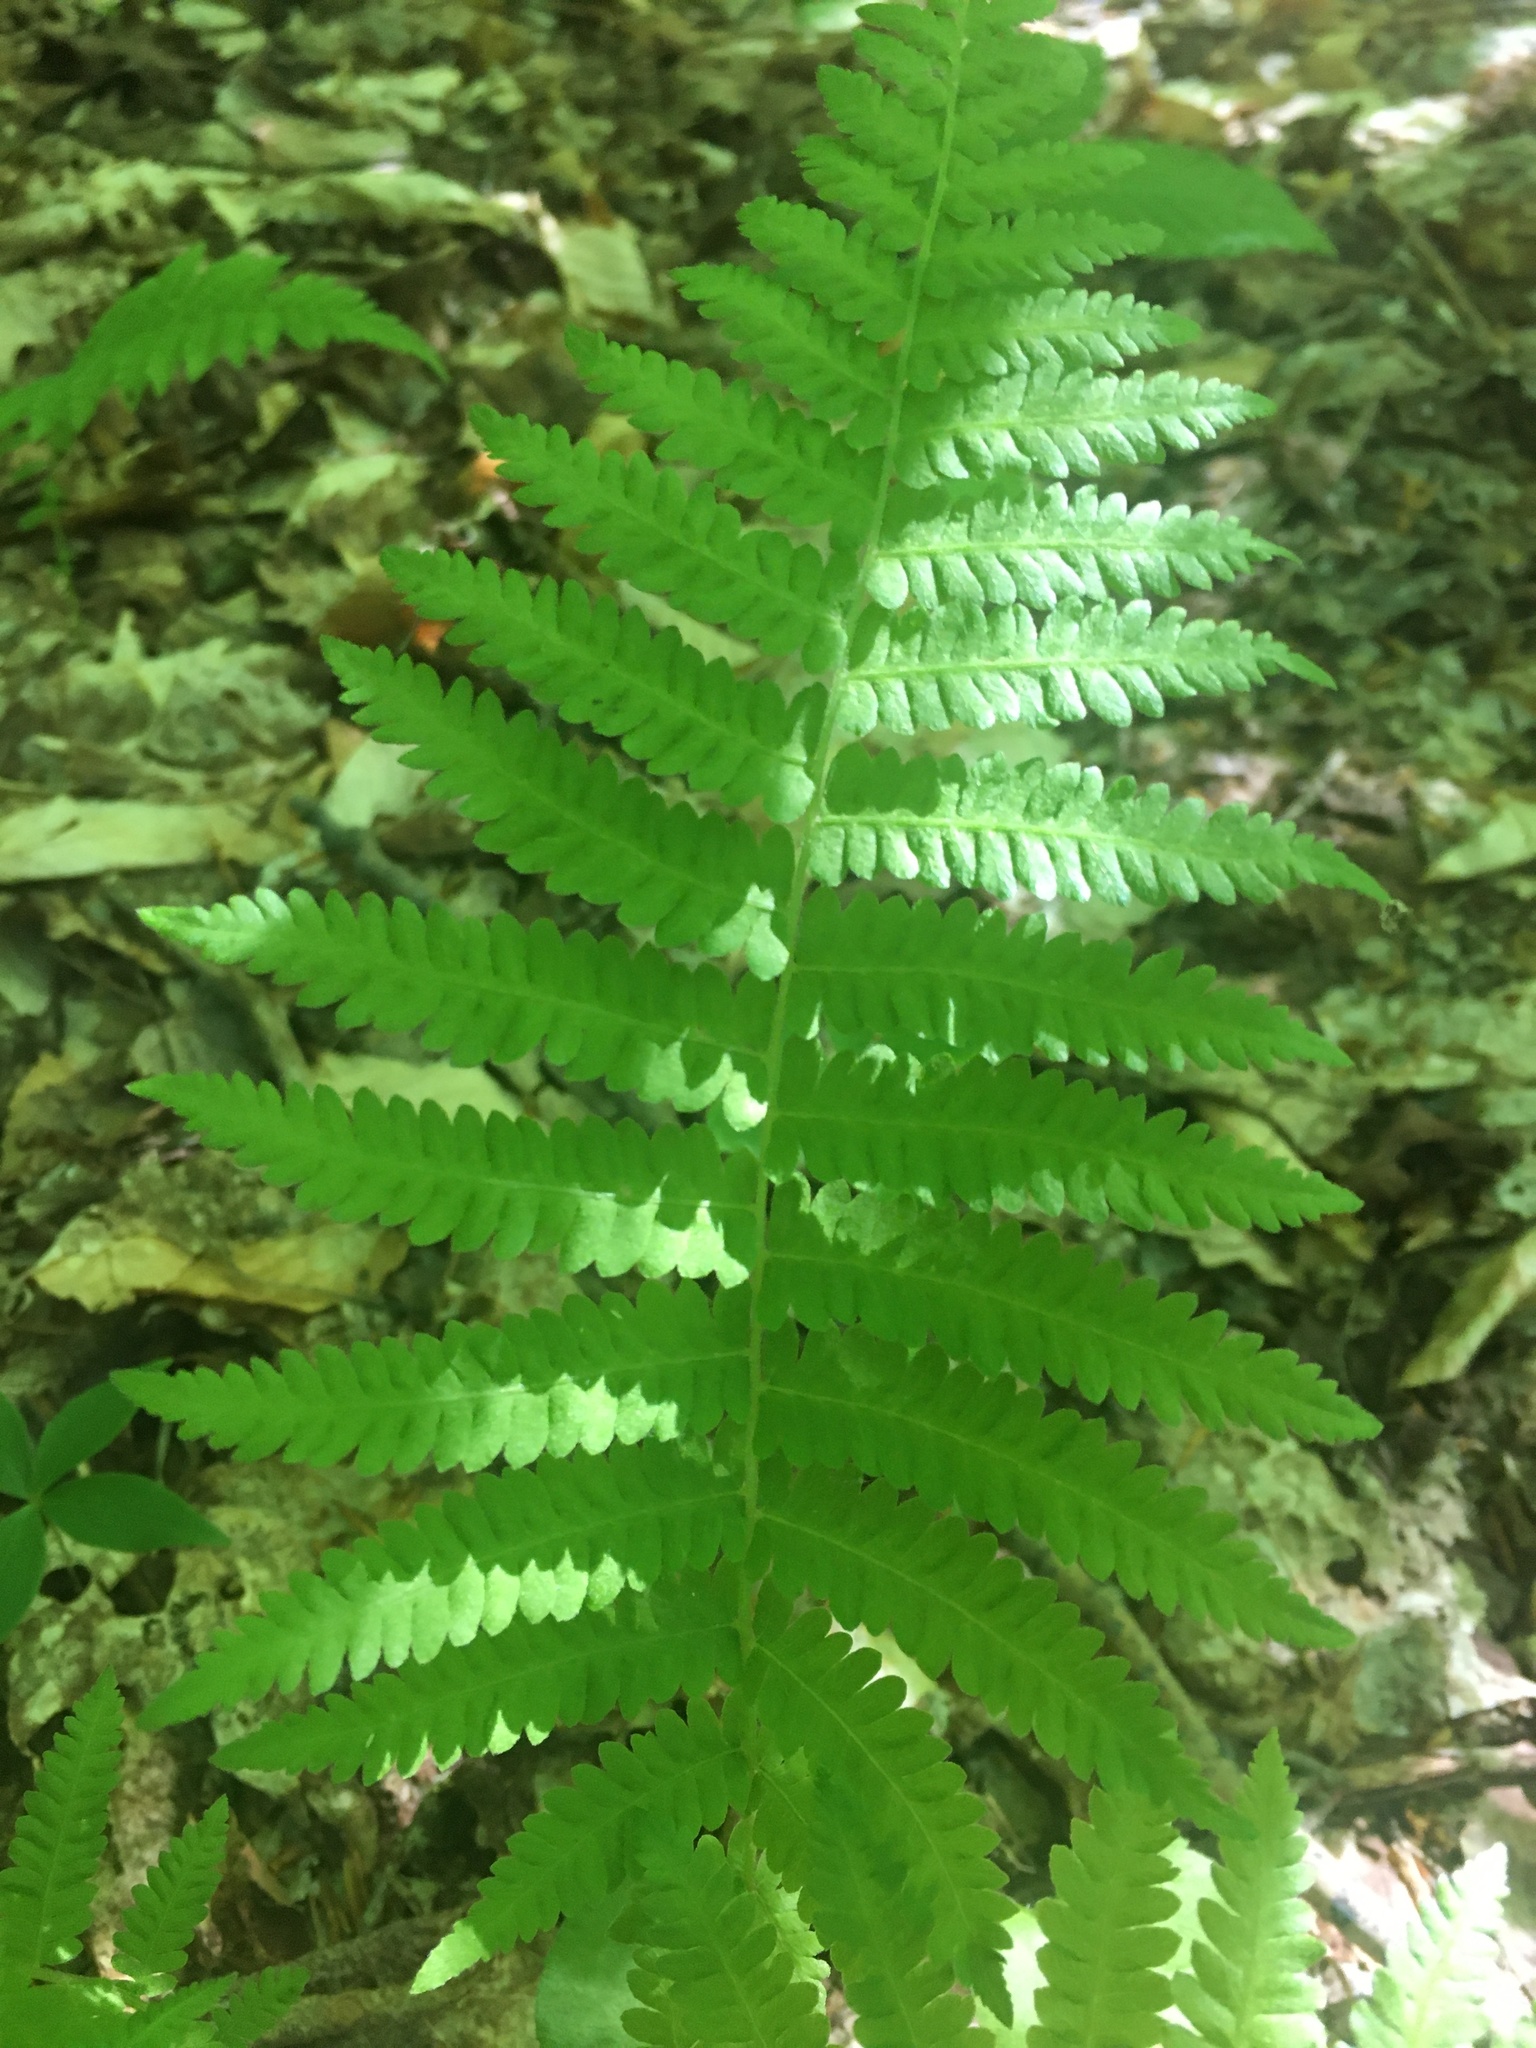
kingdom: Plantae
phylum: Tracheophyta
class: Polypodiopsida
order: Polypodiales
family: Thelypteridaceae
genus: Amauropelta
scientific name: Amauropelta noveboracensis
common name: New york fern
